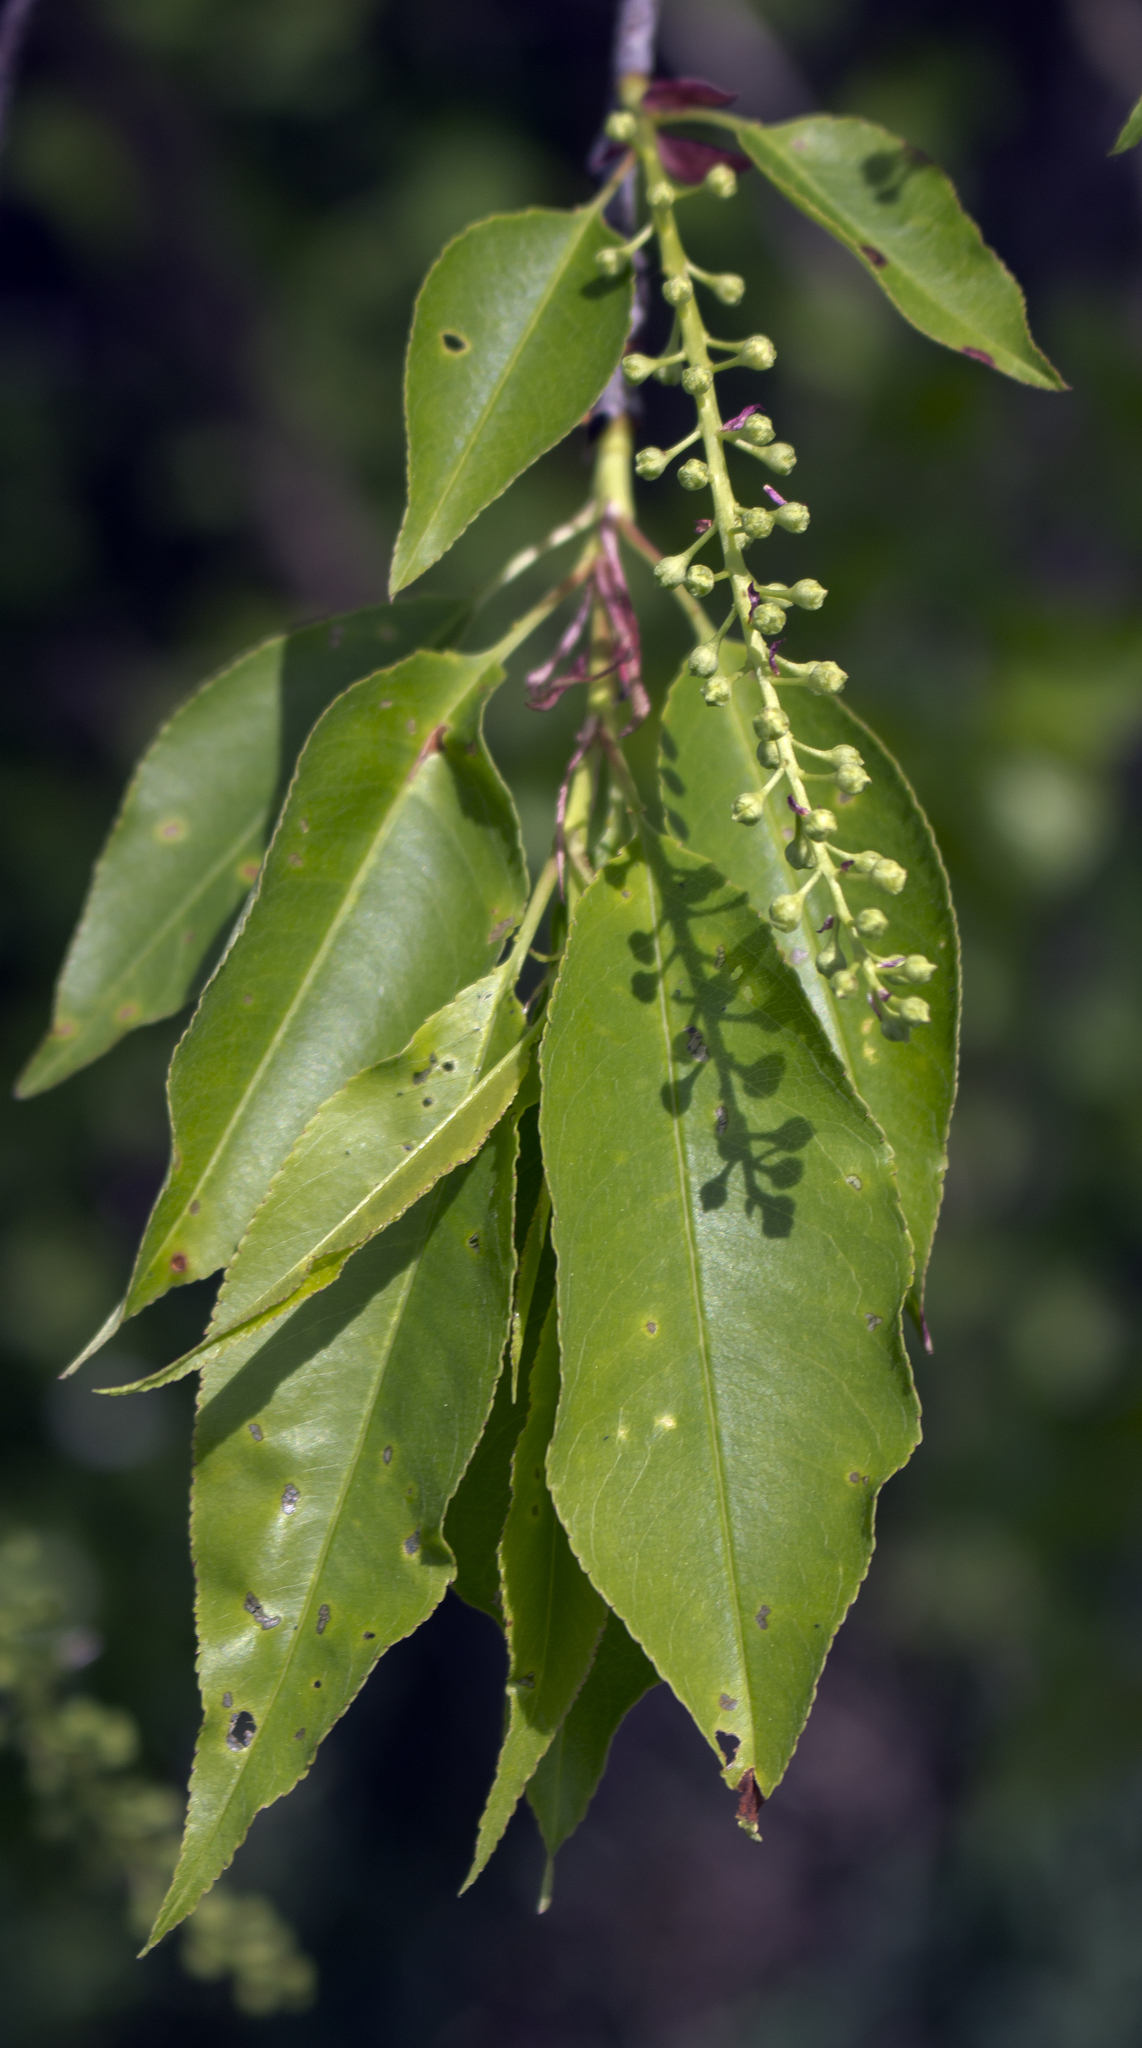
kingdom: Plantae
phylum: Tracheophyta
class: Magnoliopsida
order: Rosales
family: Rosaceae
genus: Prunus
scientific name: Prunus serotina
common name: Black cherry
